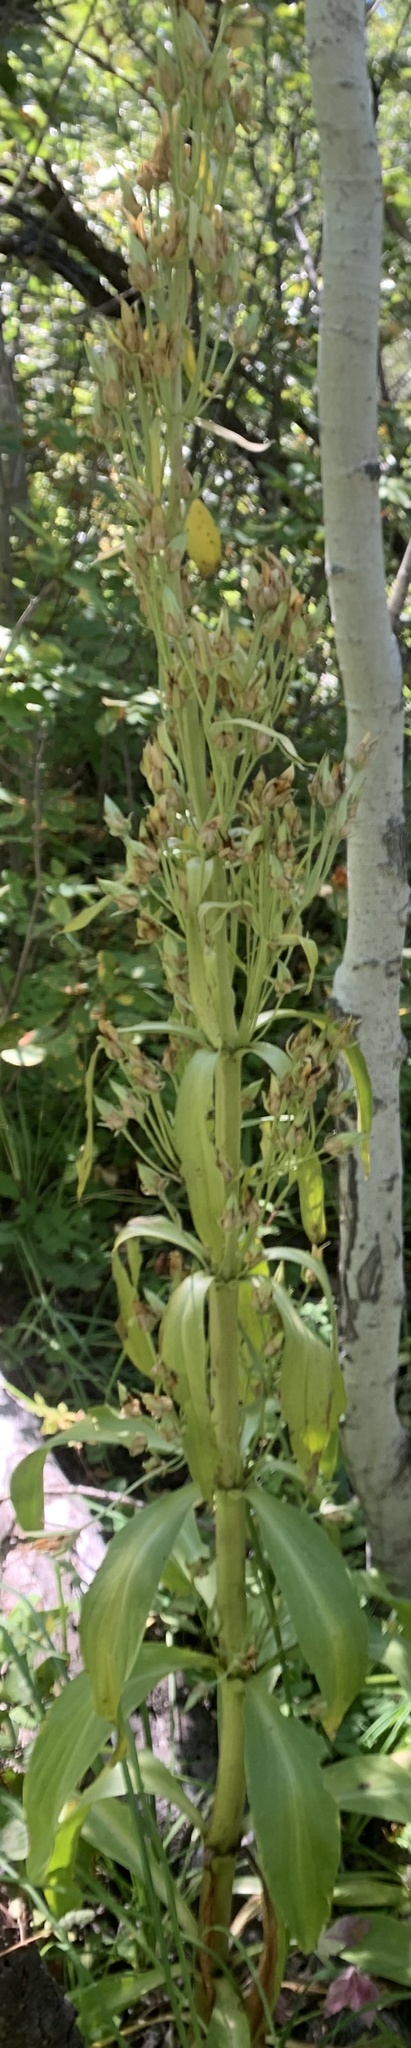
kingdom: Plantae
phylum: Tracheophyta
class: Magnoliopsida
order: Gentianales
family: Gentianaceae
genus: Frasera
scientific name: Frasera speciosa
